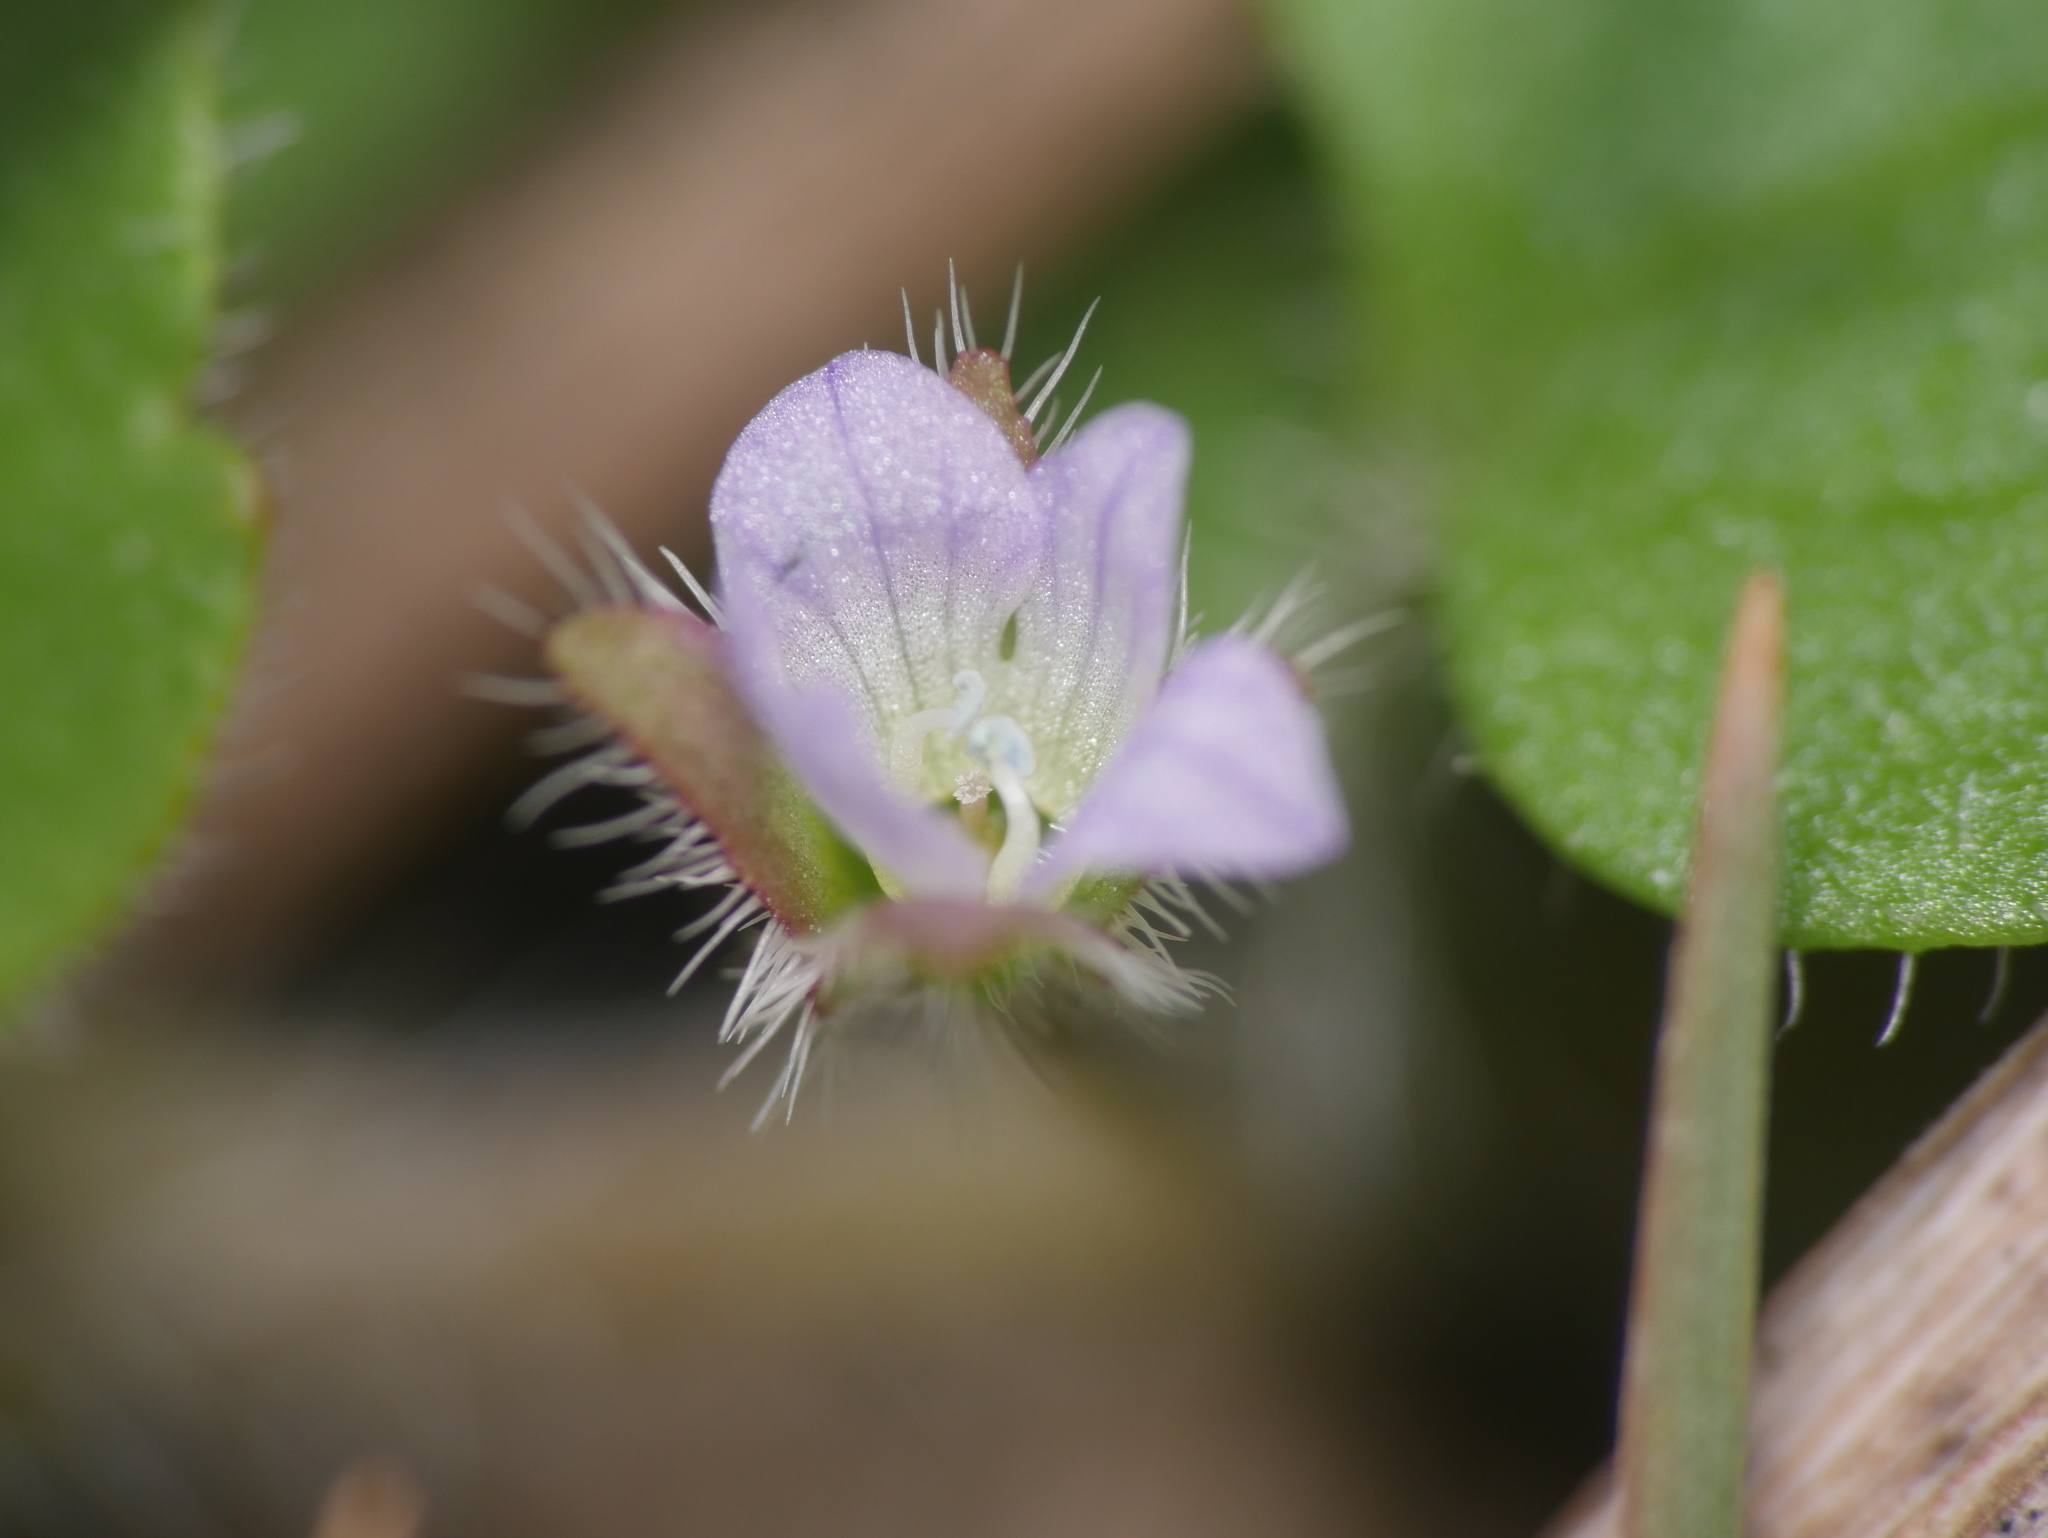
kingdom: Plantae
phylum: Tracheophyta
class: Magnoliopsida
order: Lamiales
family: Plantaginaceae
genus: Veronica
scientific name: Veronica sublobata
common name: False ivy-leaved speedwell
